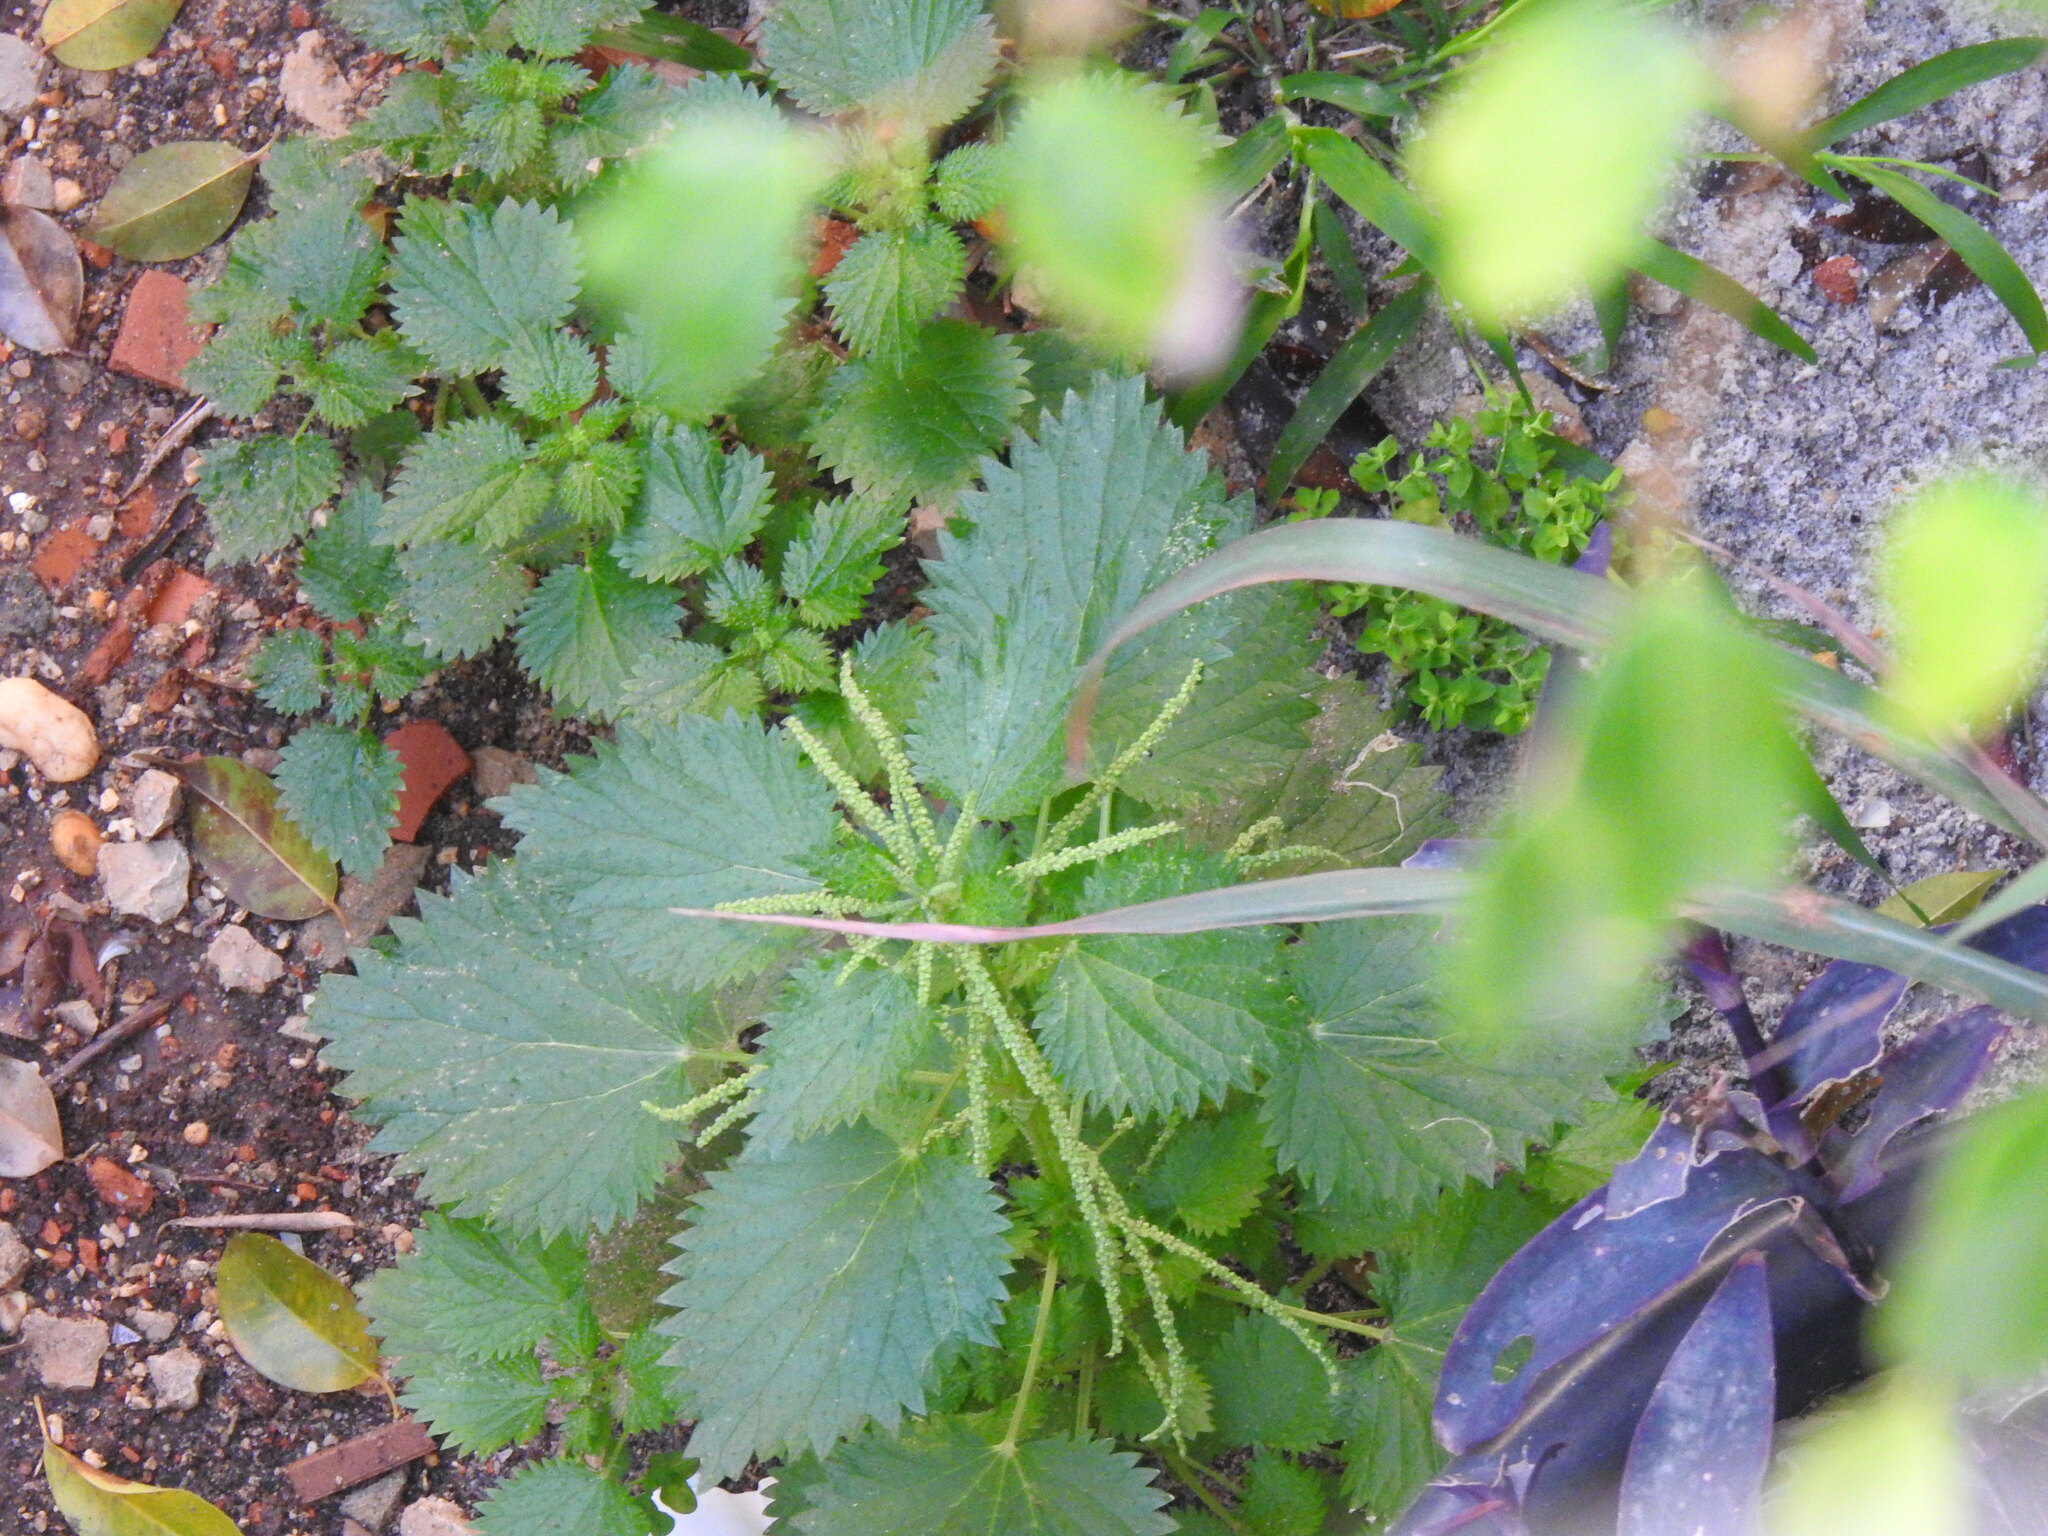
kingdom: Plantae
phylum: Tracheophyta
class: Magnoliopsida
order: Rosales
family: Urticaceae
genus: Urtica
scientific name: Urtica membranacea
